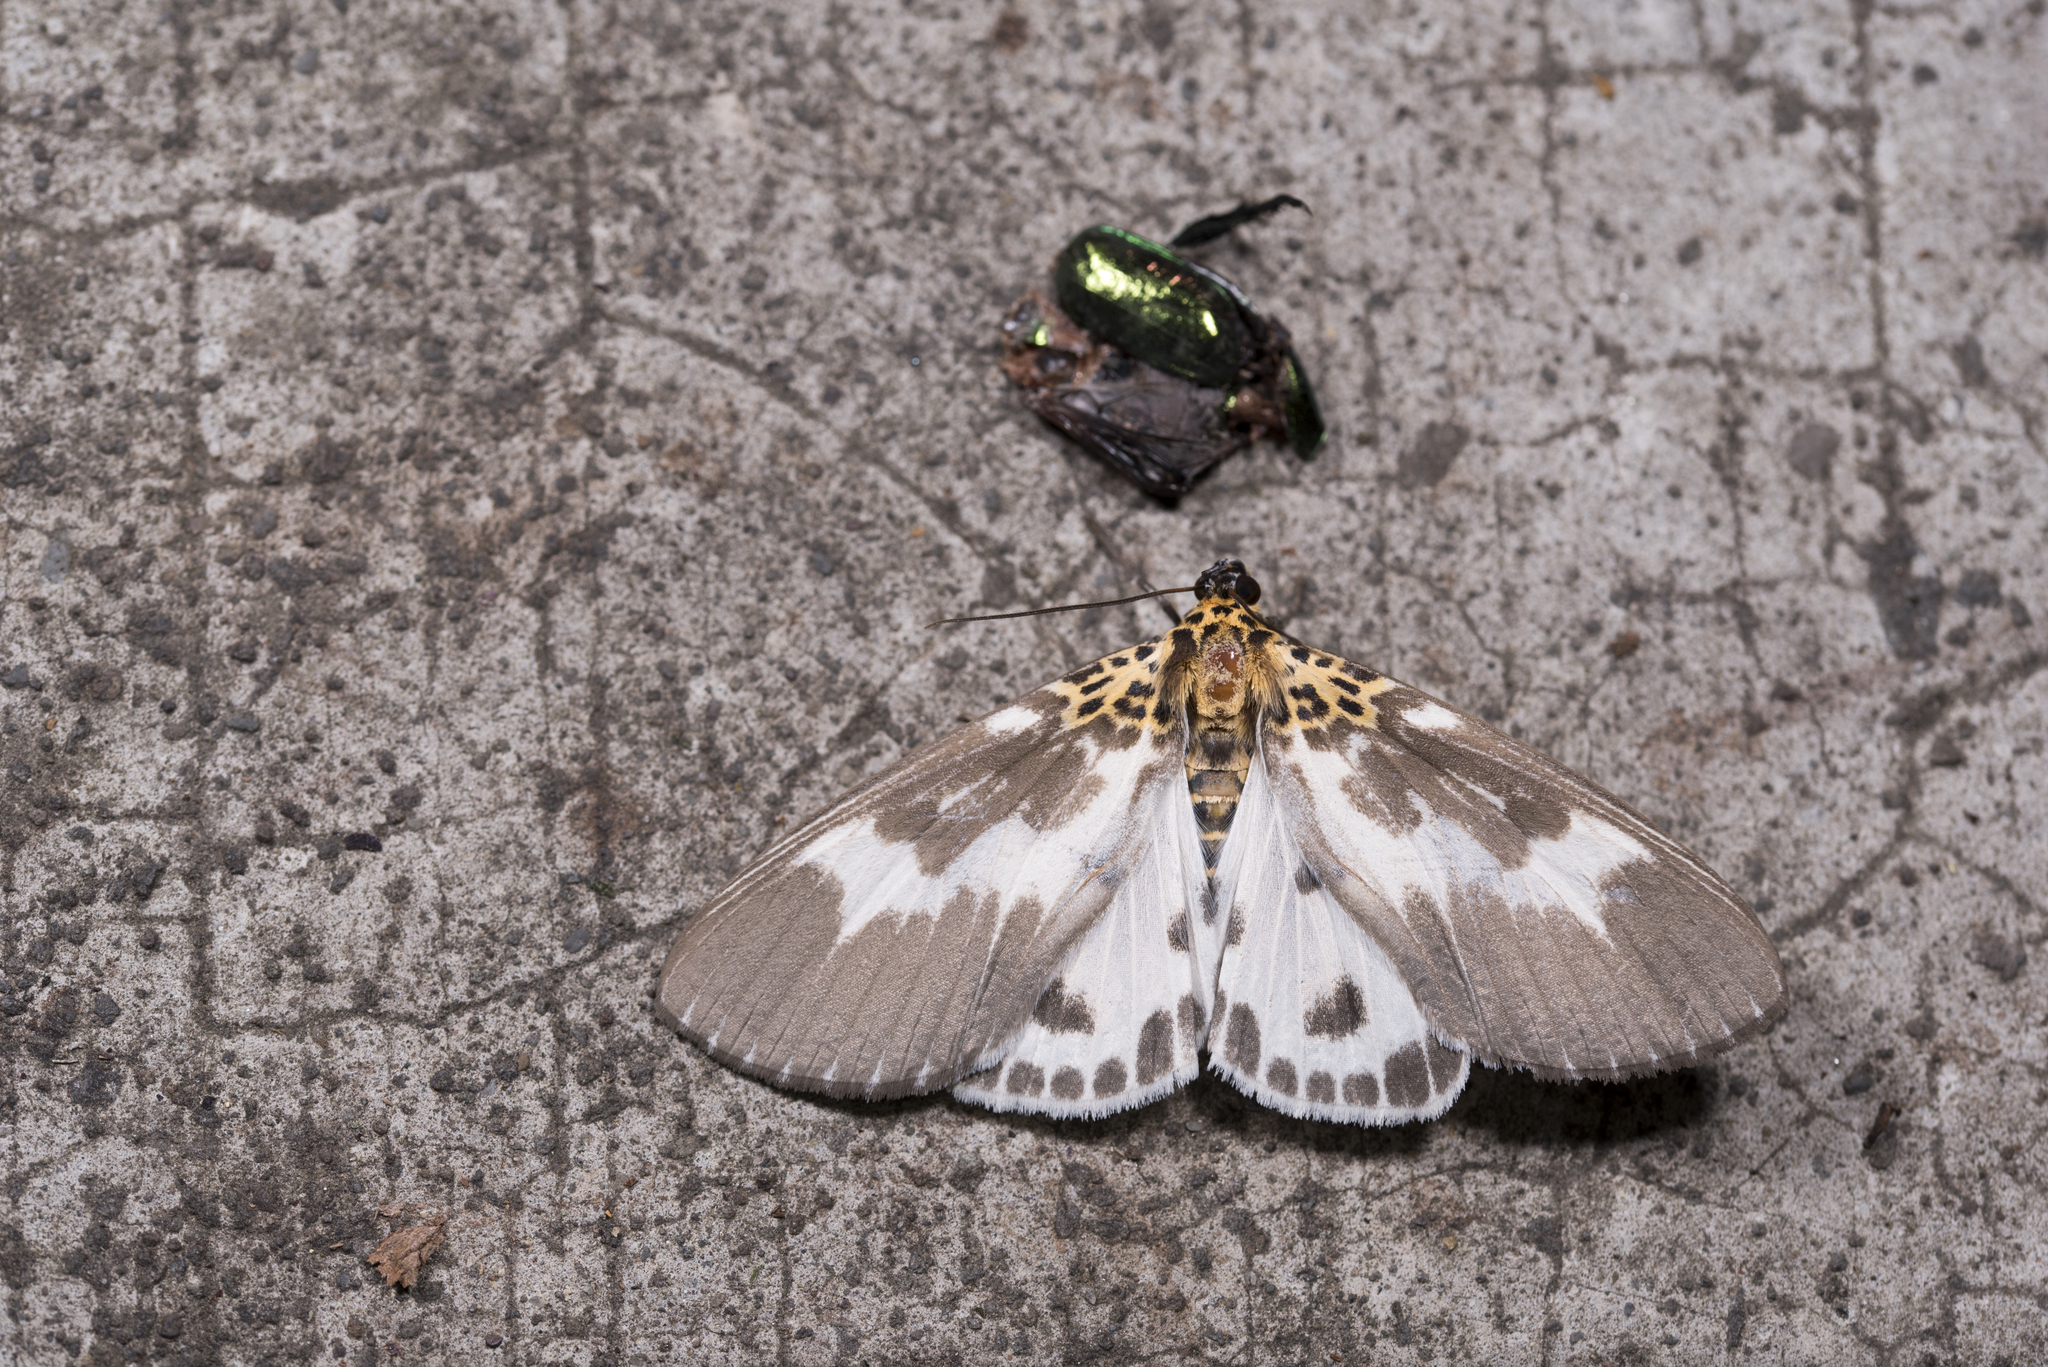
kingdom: Animalia
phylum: Arthropoda
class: Insecta
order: Lepidoptera
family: Erebidae
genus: Asota
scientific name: Asota tortuosa
